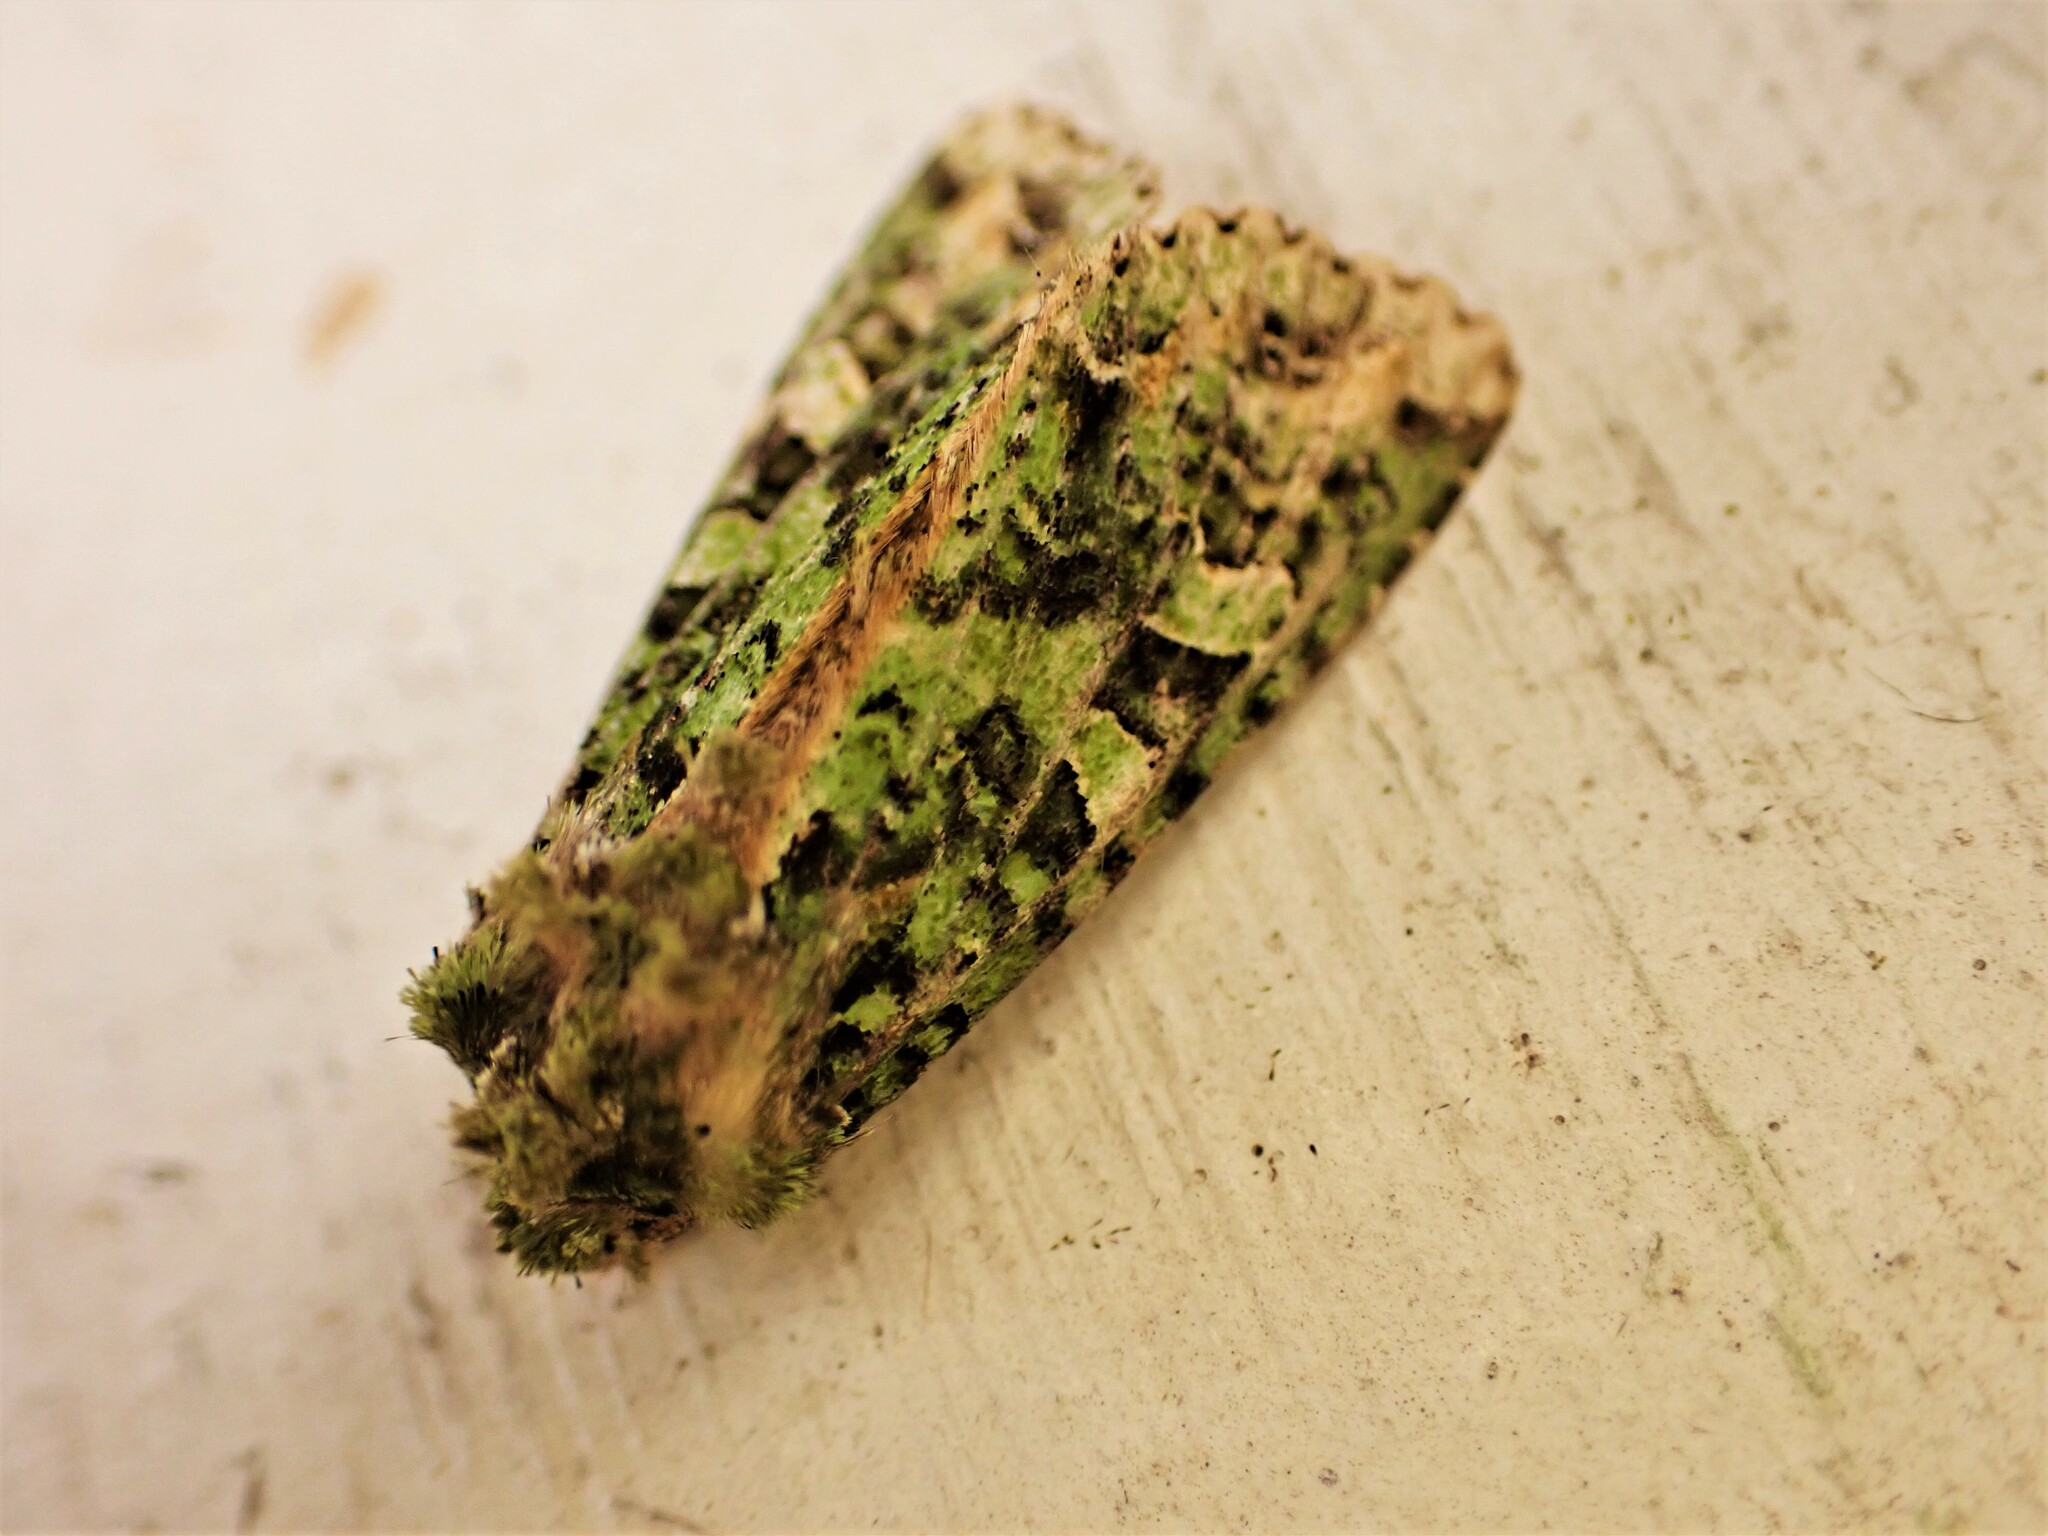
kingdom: Animalia
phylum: Arthropoda
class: Insecta
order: Lepidoptera
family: Noctuidae
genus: Ichneutica
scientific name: Ichneutica
